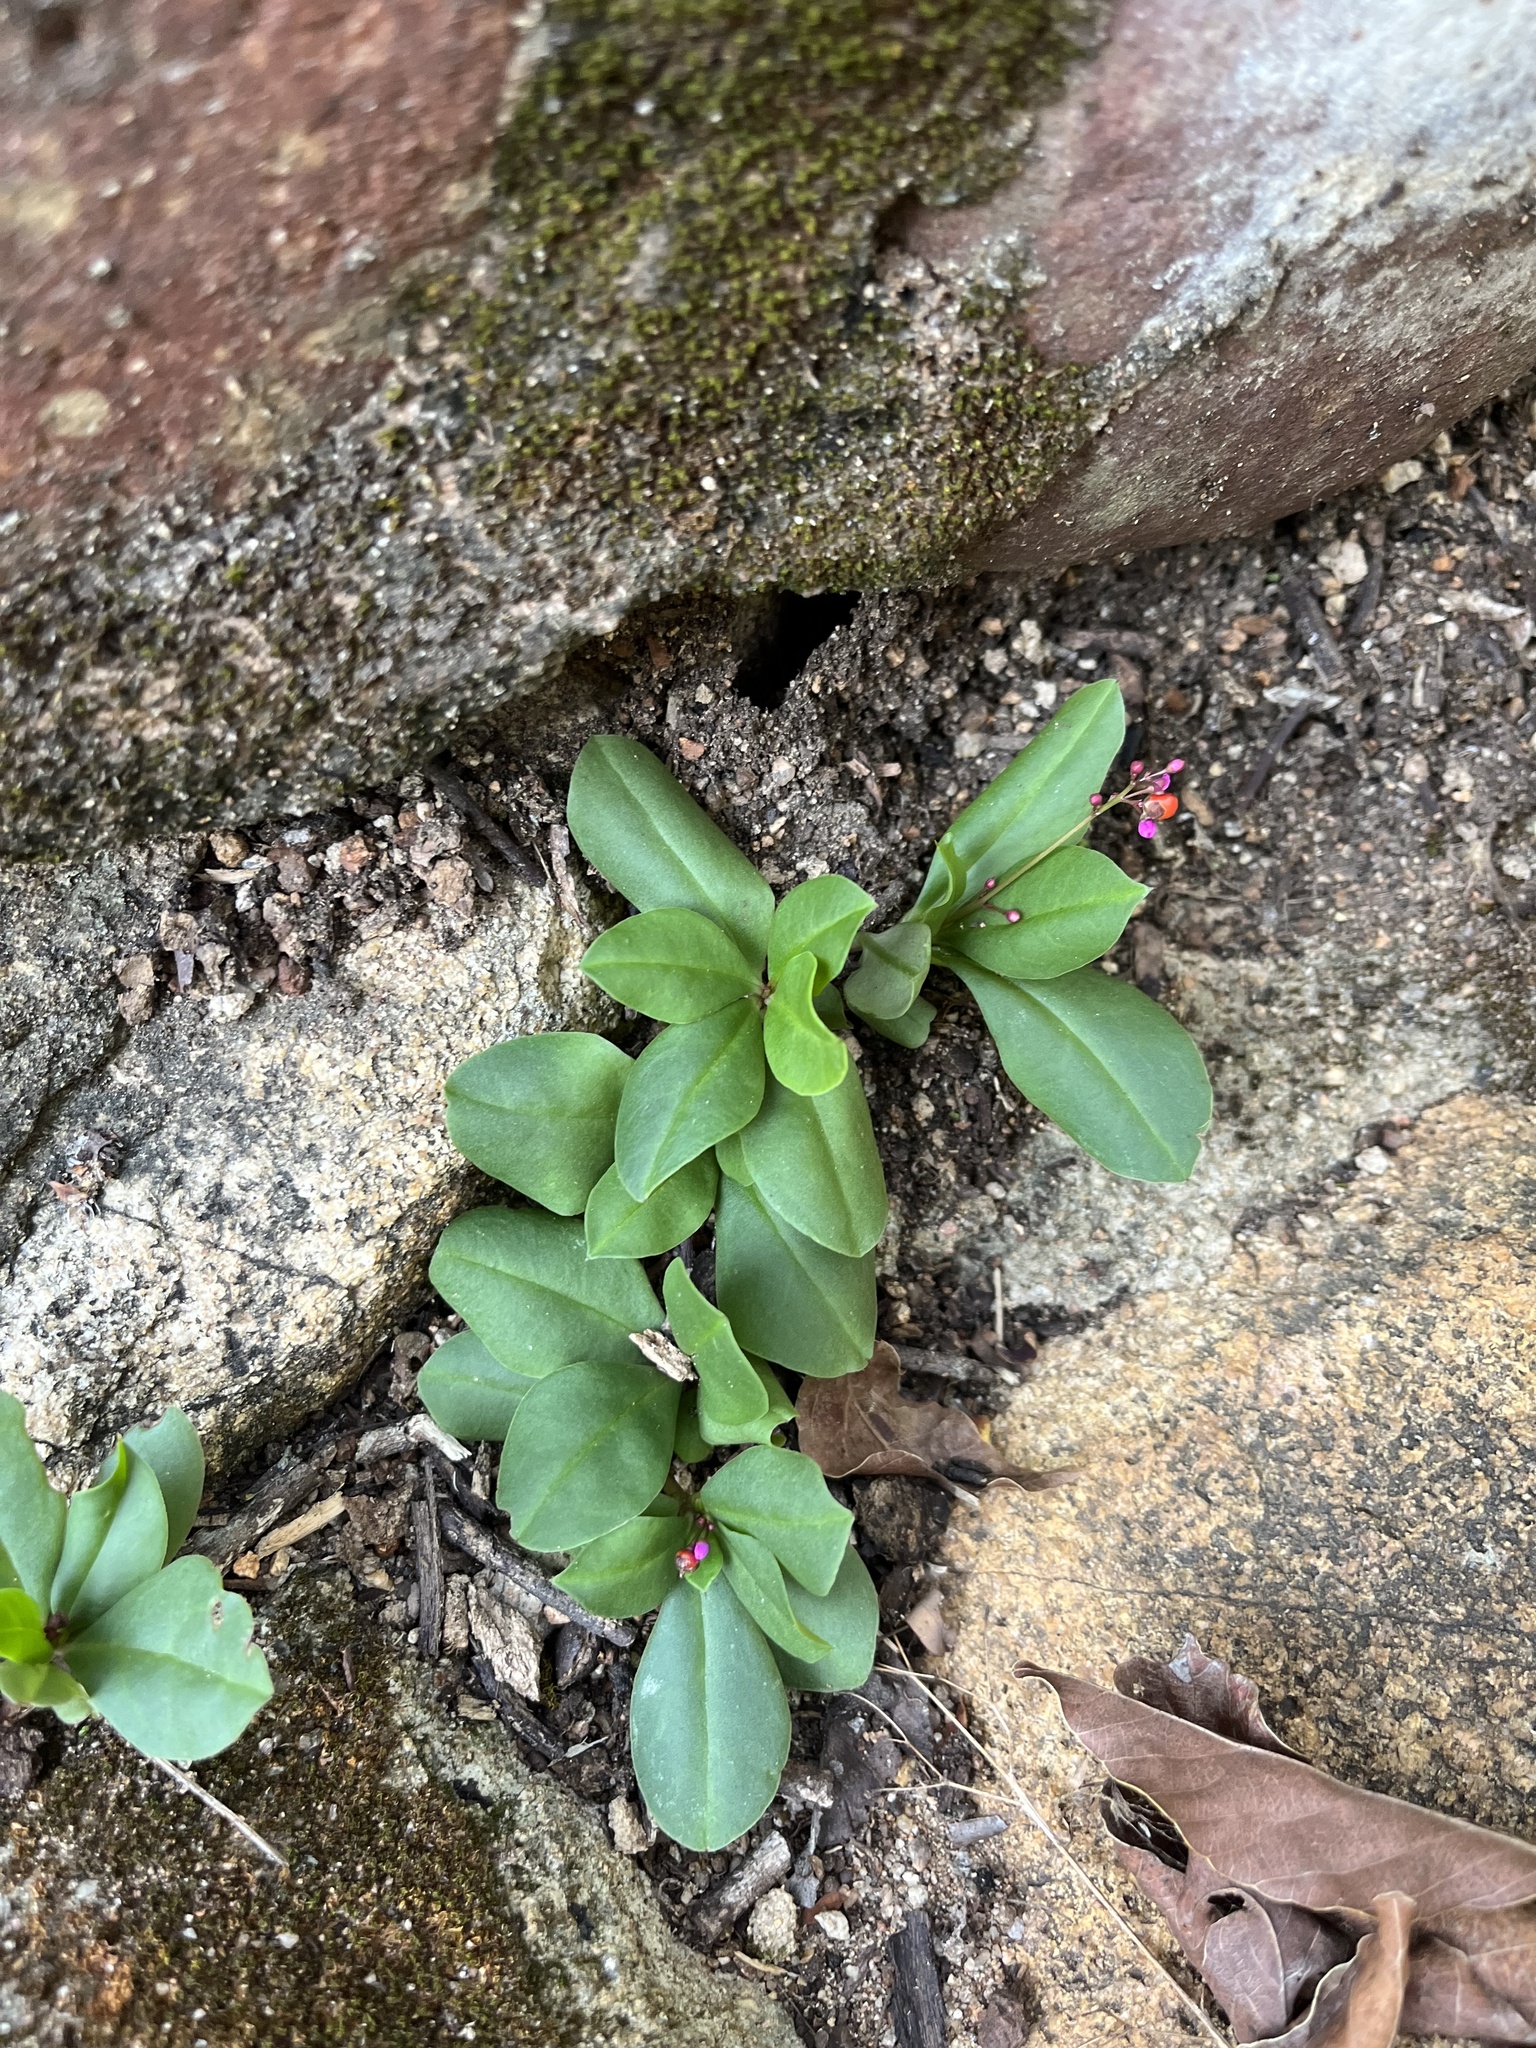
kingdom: Plantae
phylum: Tracheophyta
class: Magnoliopsida
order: Caryophyllales
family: Talinaceae
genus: Talinum
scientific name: Talinum paniculatum
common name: Jewels of opar
